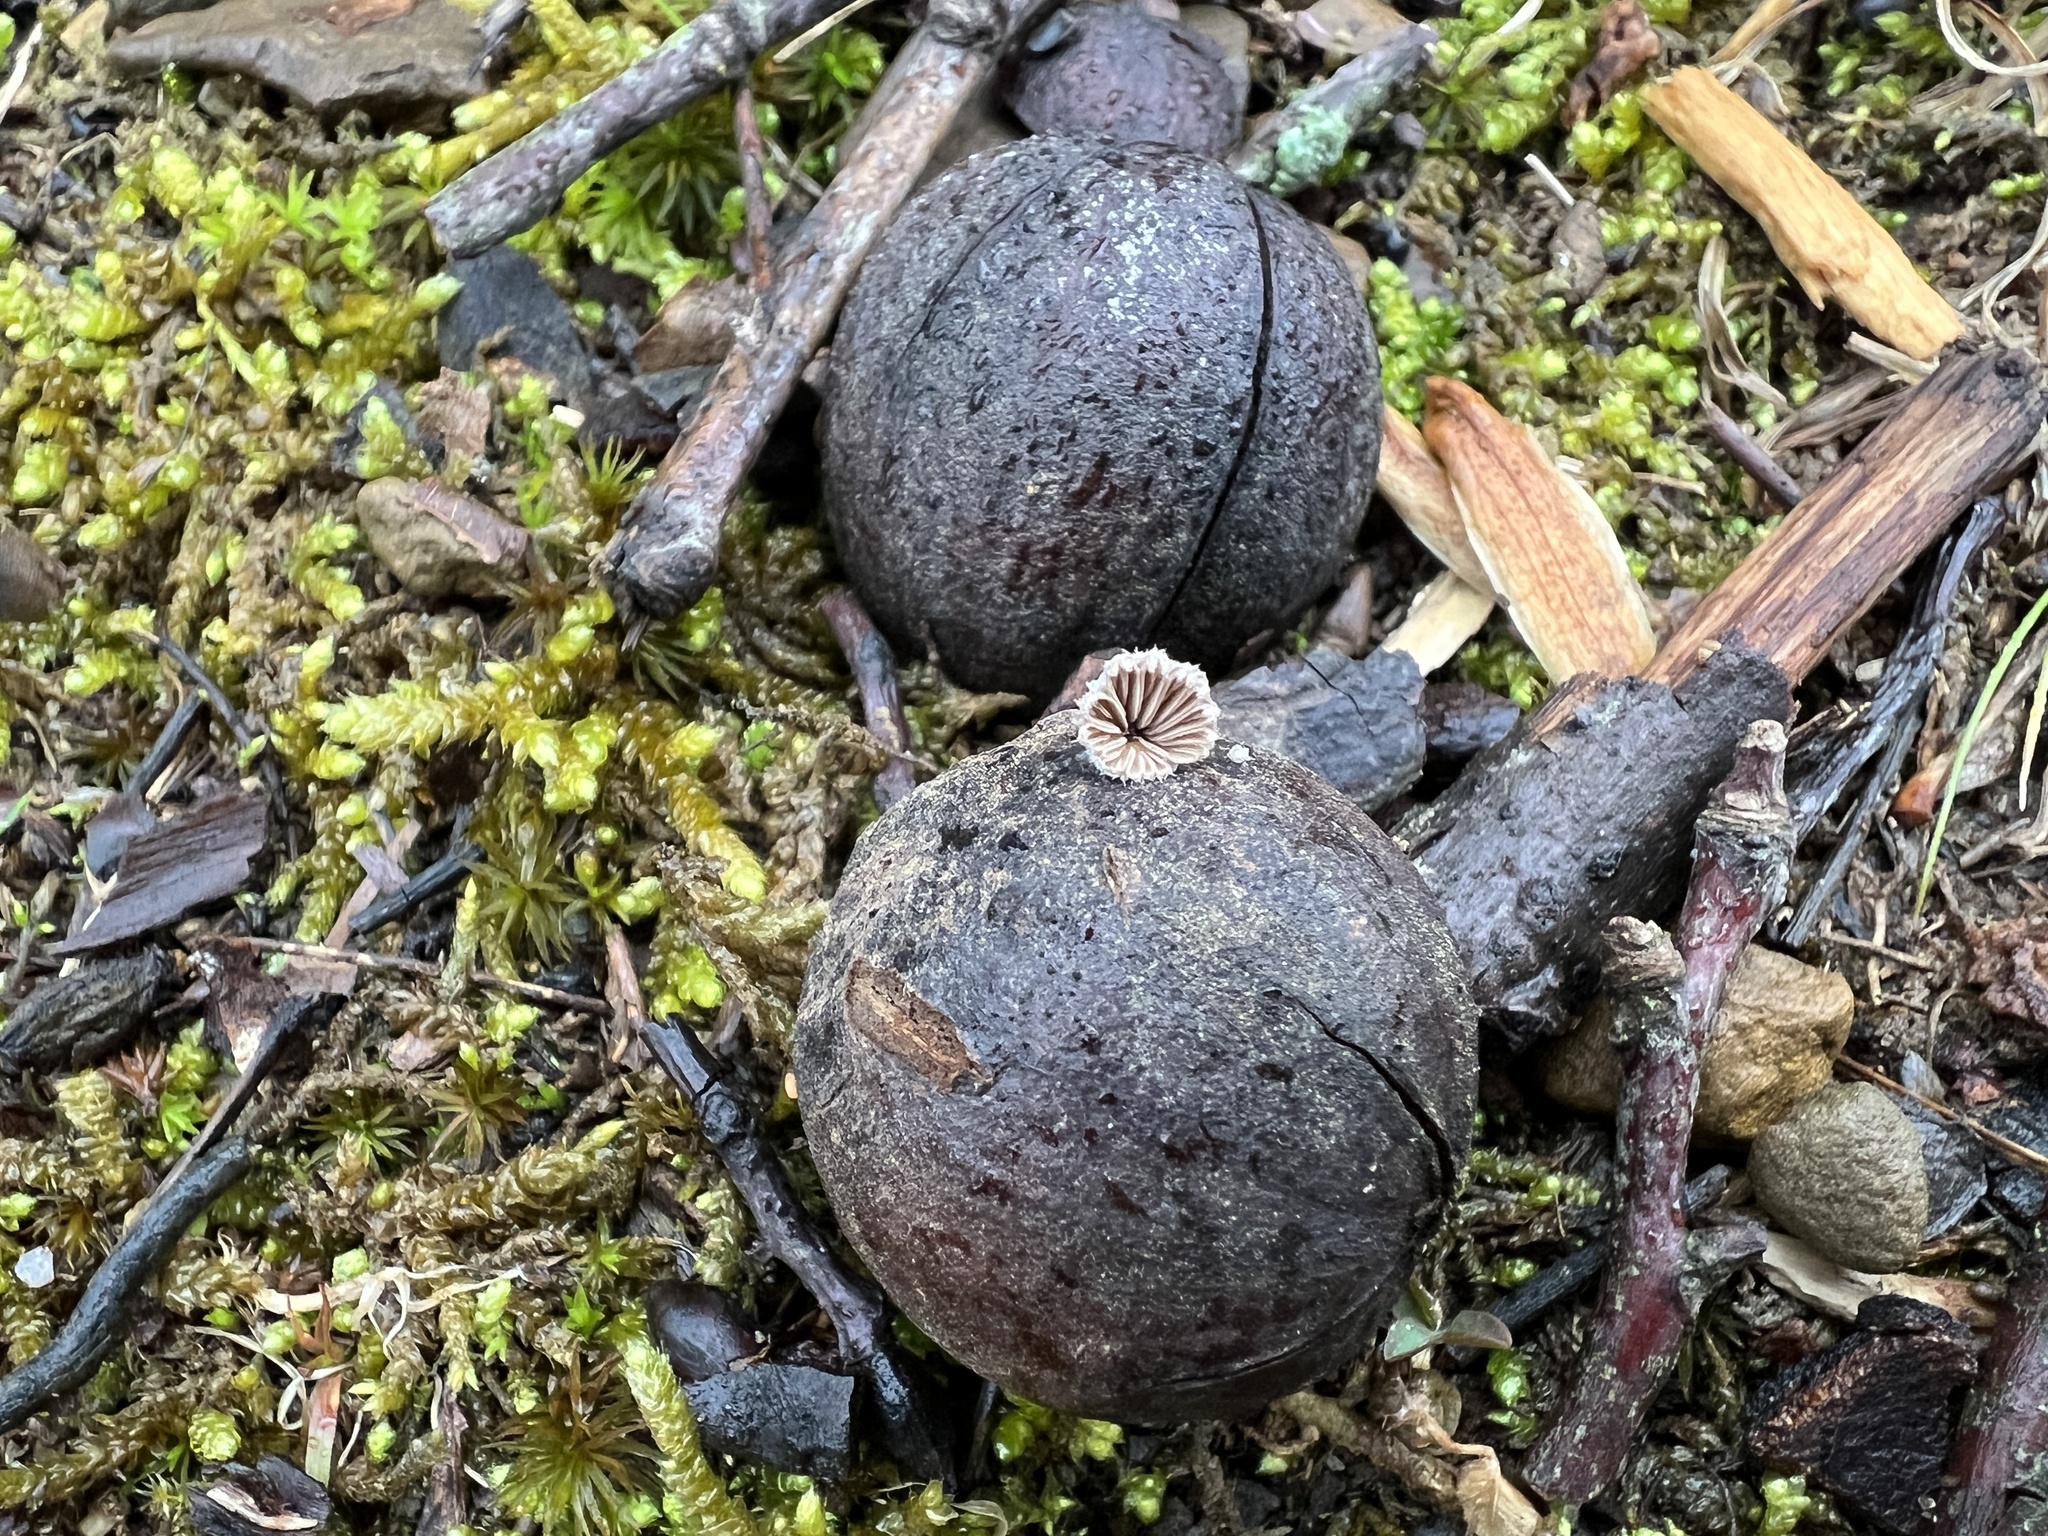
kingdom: Fungi
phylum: Basidiomycota
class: Agaricomycetes
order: Agaricales
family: Schizophyllaceae
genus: Schizophyllum
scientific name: Schizophyllum commune
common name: Common porecrust
